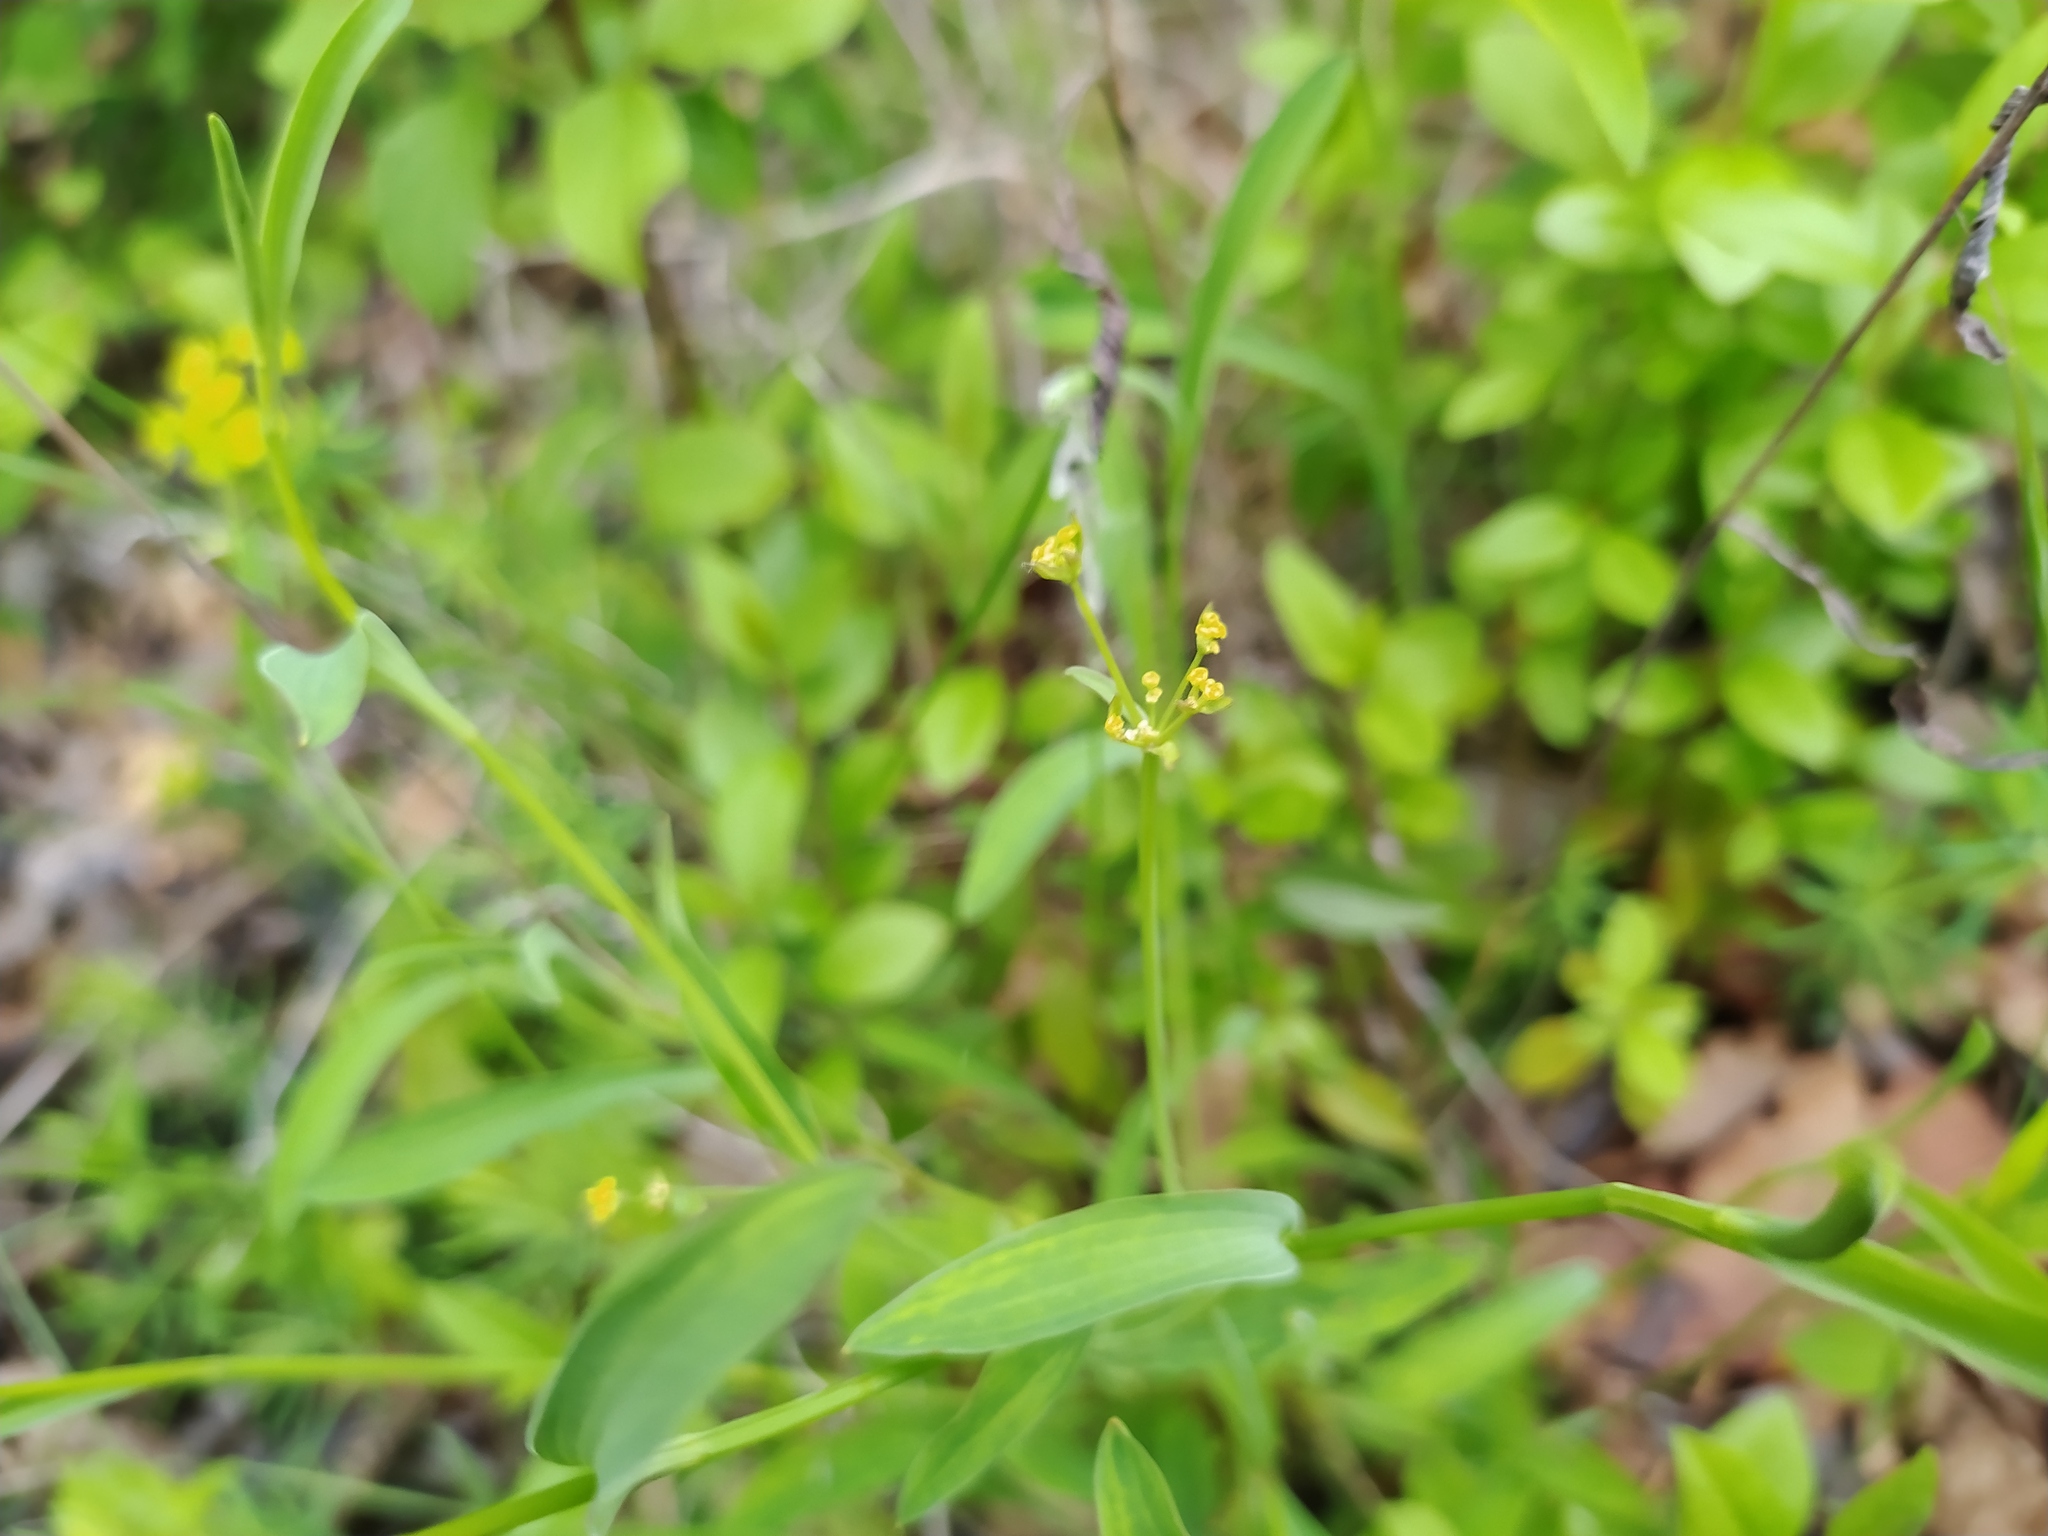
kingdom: Plantae
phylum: Tracheophyta
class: Magnoliopsida
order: Apiales
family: Apiaceae
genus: Bupleurum
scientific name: Bupleurum falcatum
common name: Sickle-leaved hare's-ear
